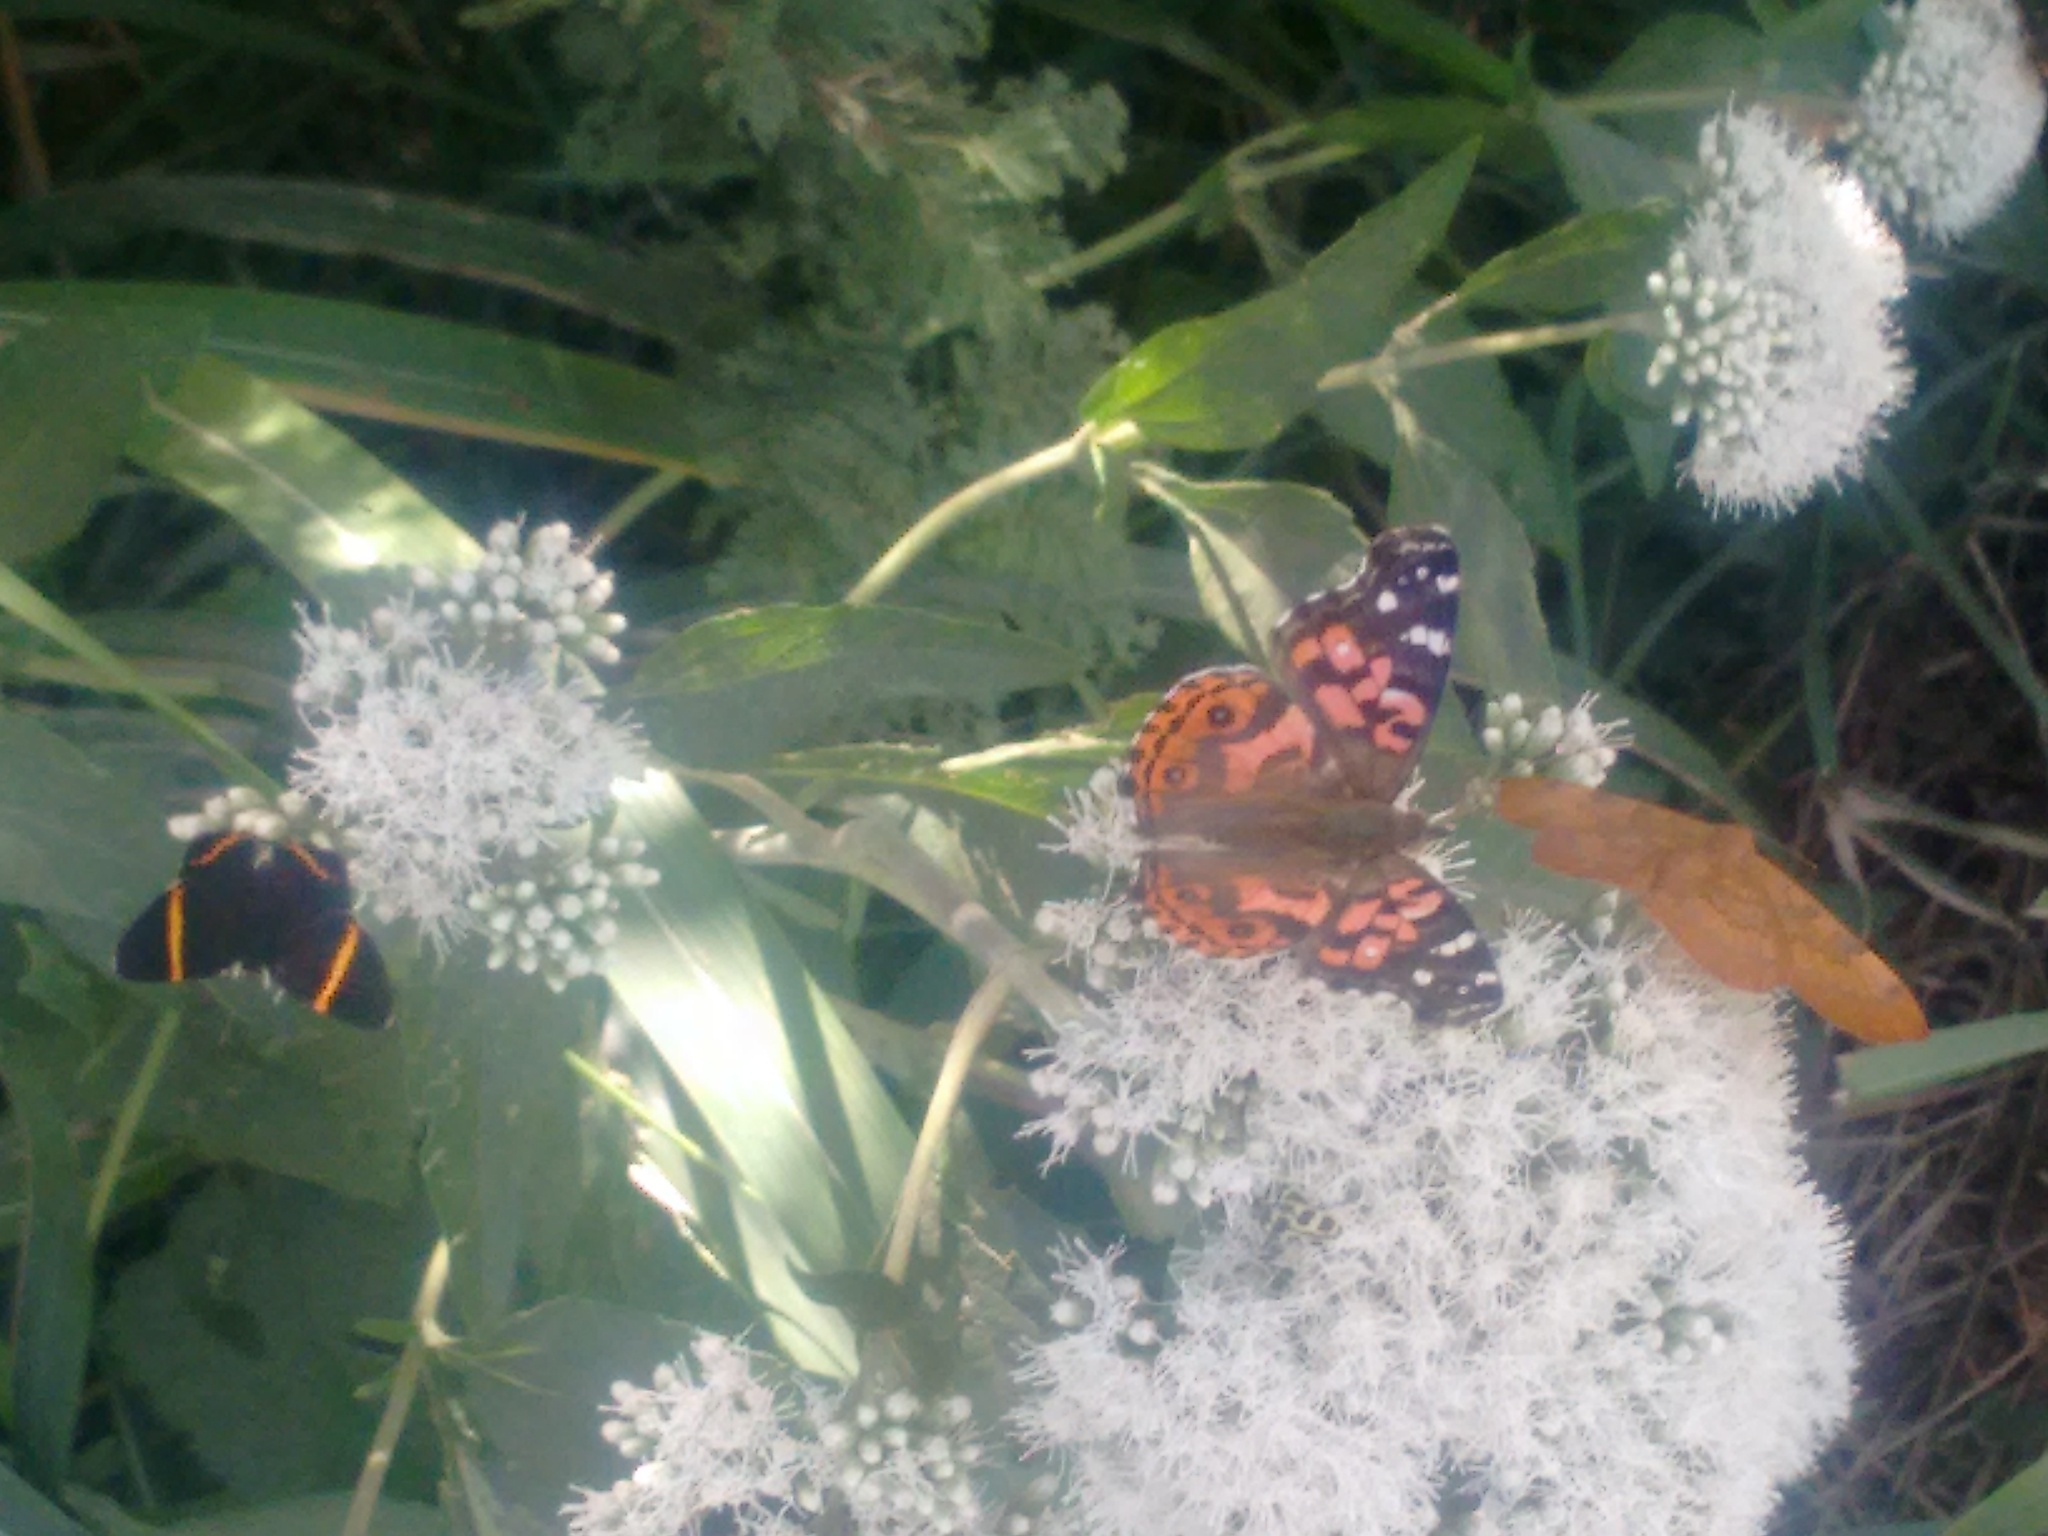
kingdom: Animalia
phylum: Arthropoda
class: Insecta
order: Lepidoptera
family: Nymphalidae
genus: Vanessa
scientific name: Vanessa braziliensis
